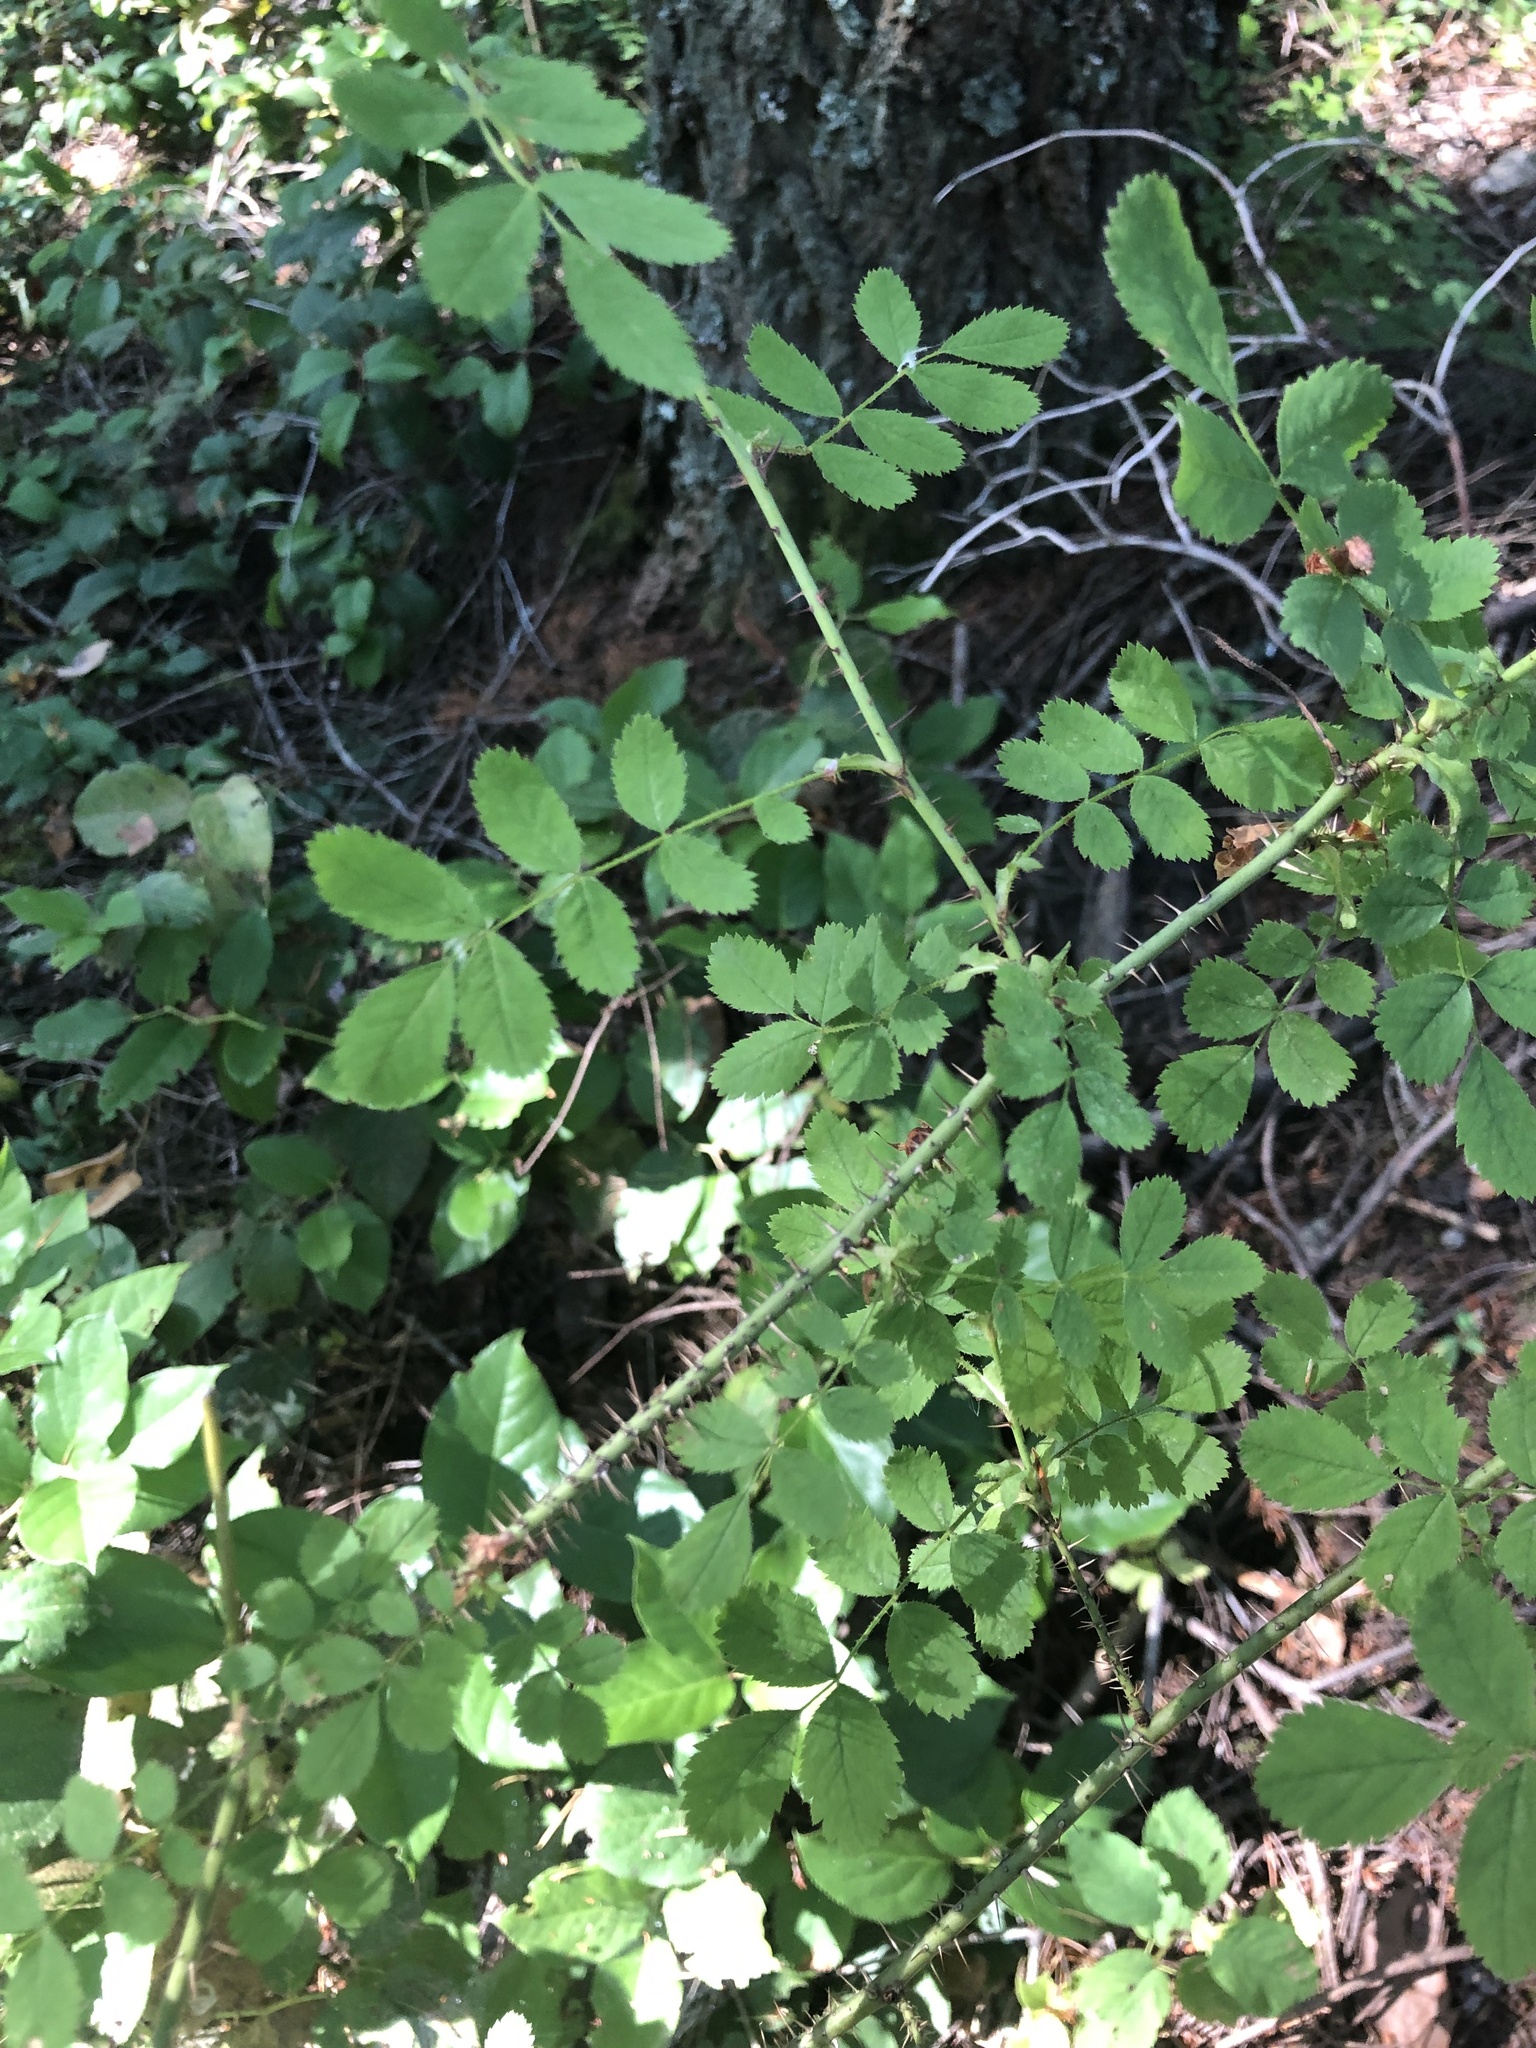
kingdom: Plantae
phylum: Tracheophyta
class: Magnoliopsida
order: Rosales
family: Rosaceae
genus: Rosa
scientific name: Rosa gymnocarpa
